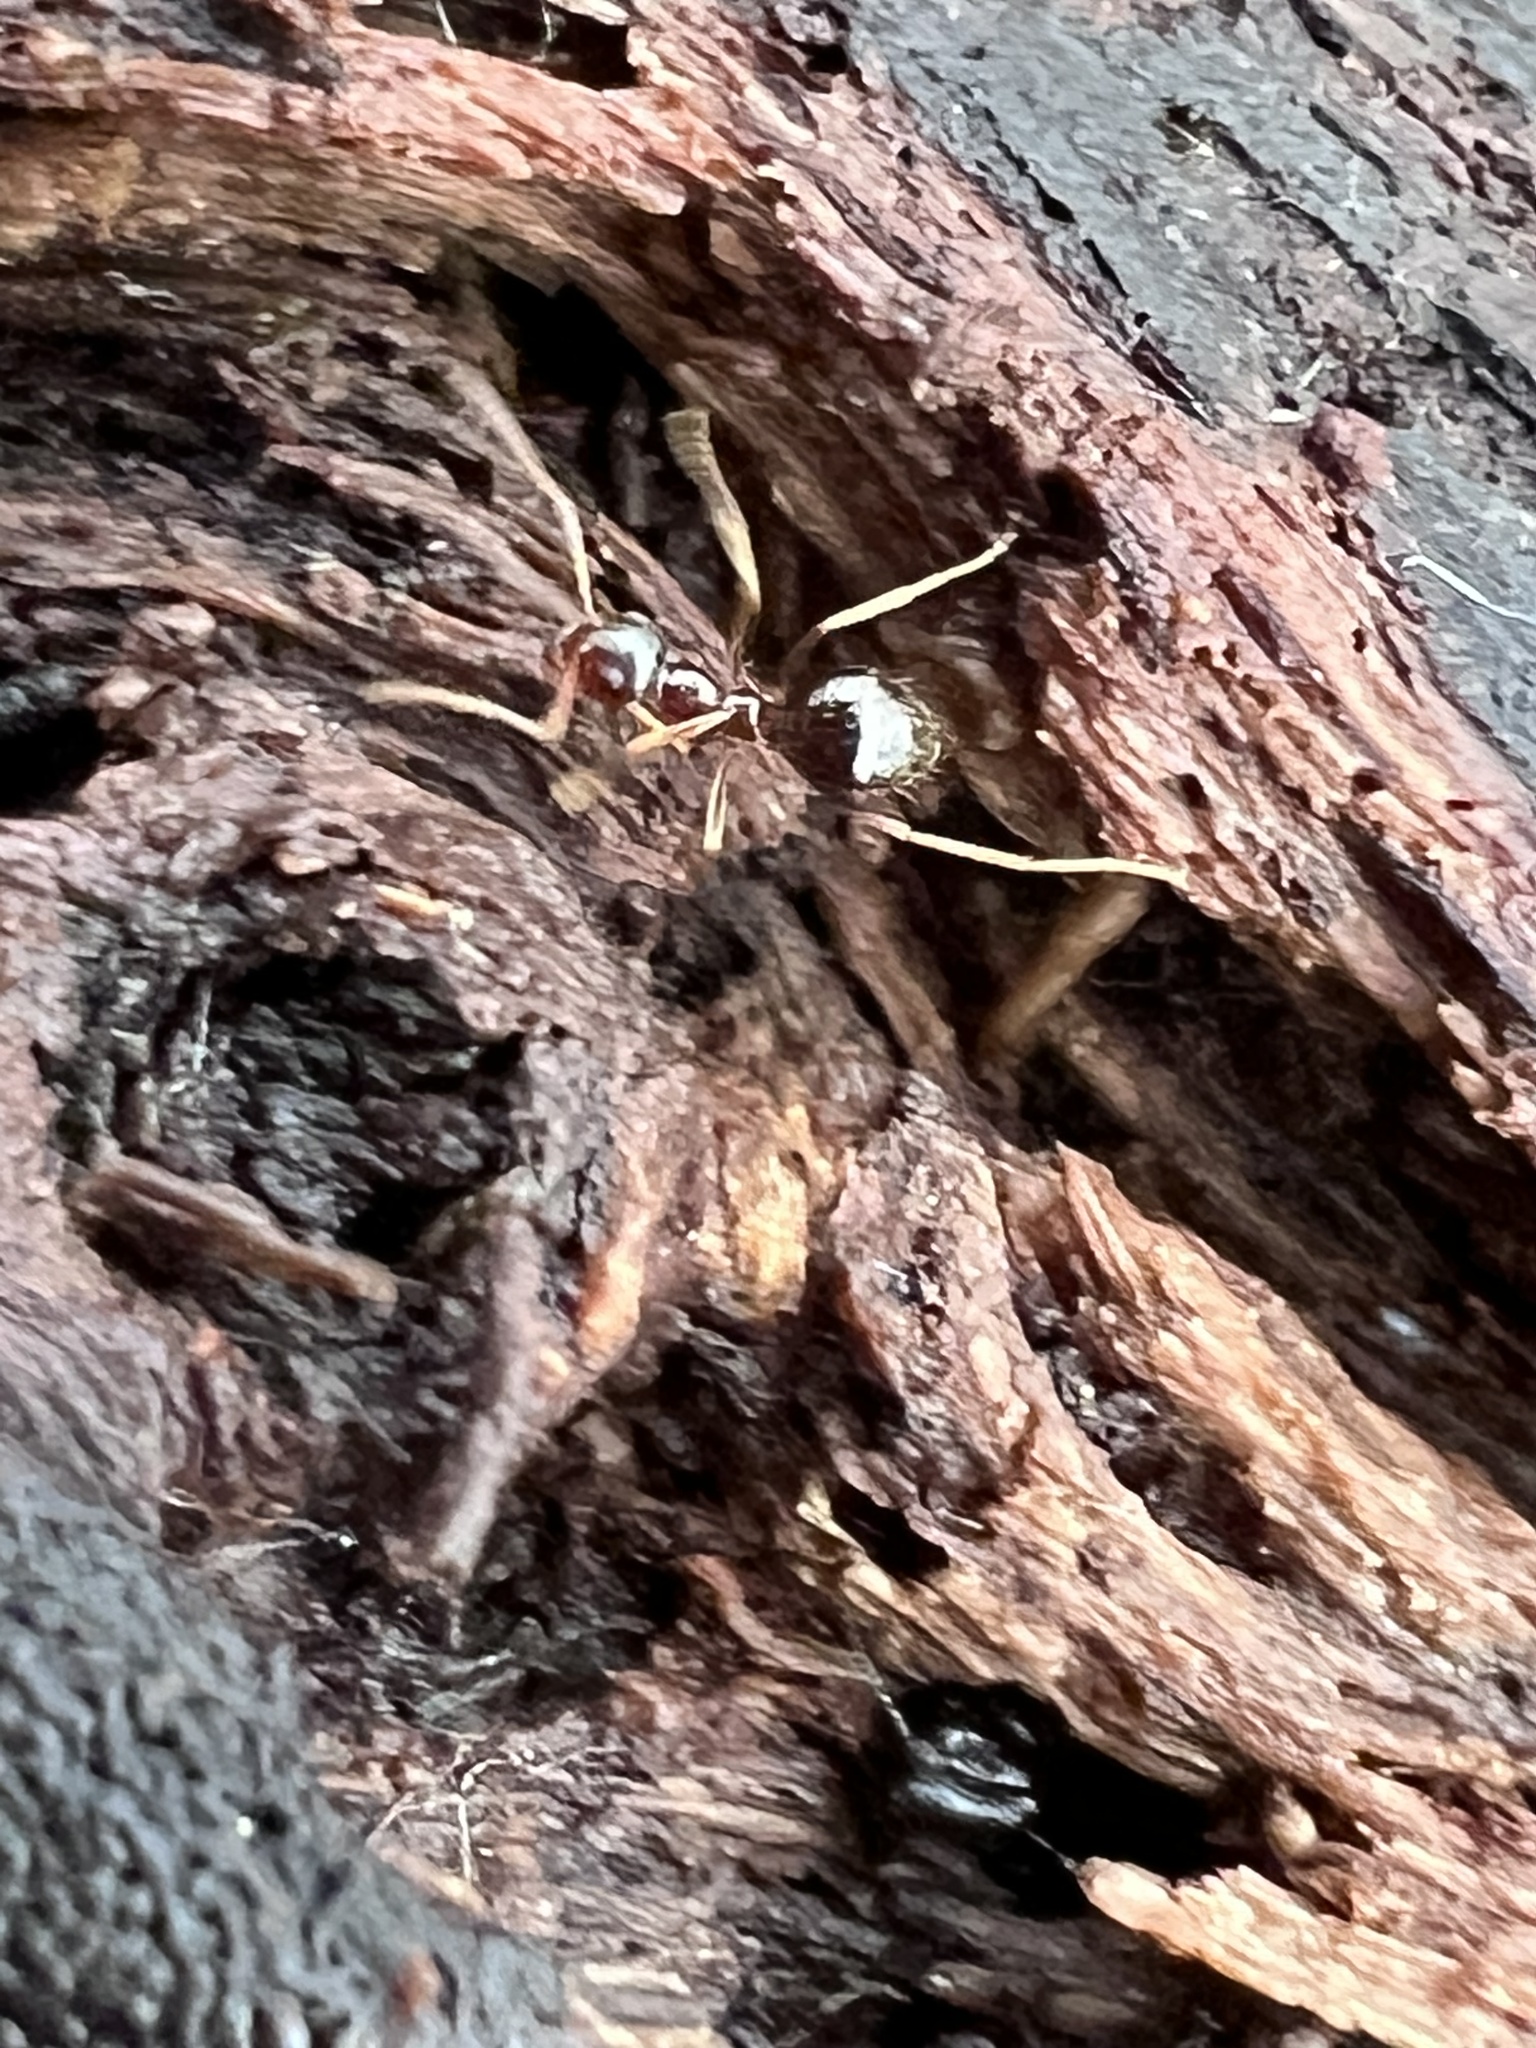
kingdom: Animalia
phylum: Arthropoda
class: Insecta
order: Hymenoptera
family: Formicidae
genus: Prenolepis
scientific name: Prenolepis imparis
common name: Small honey ant
